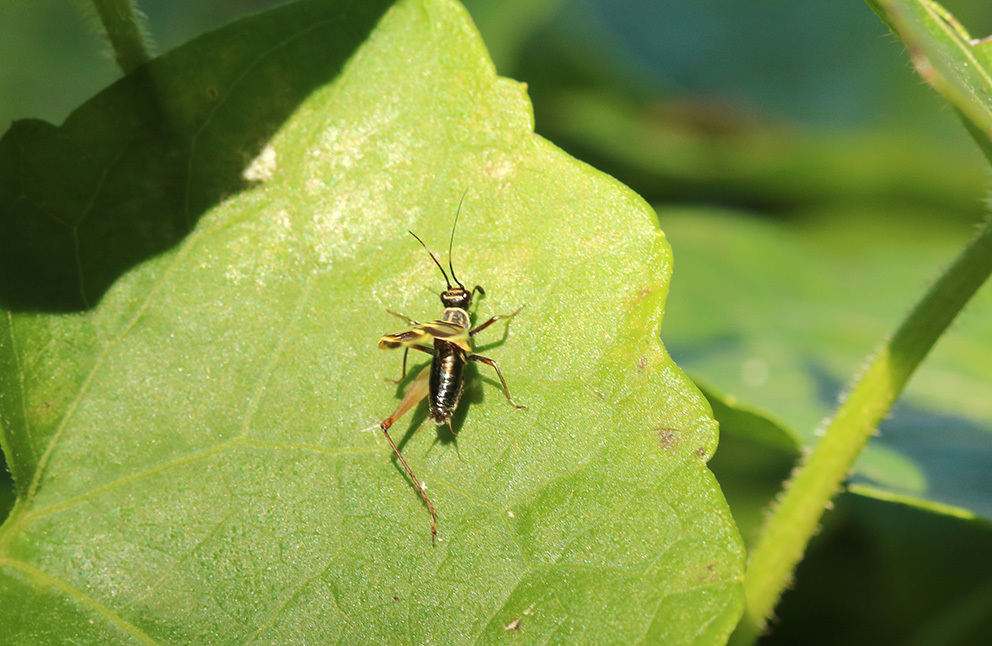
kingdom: Animalia
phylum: Arthropoda
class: Insecta
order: Orthoptera
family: Trigonidiidae
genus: Phylloscyrtus
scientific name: Phylloscyrtus amoenus
